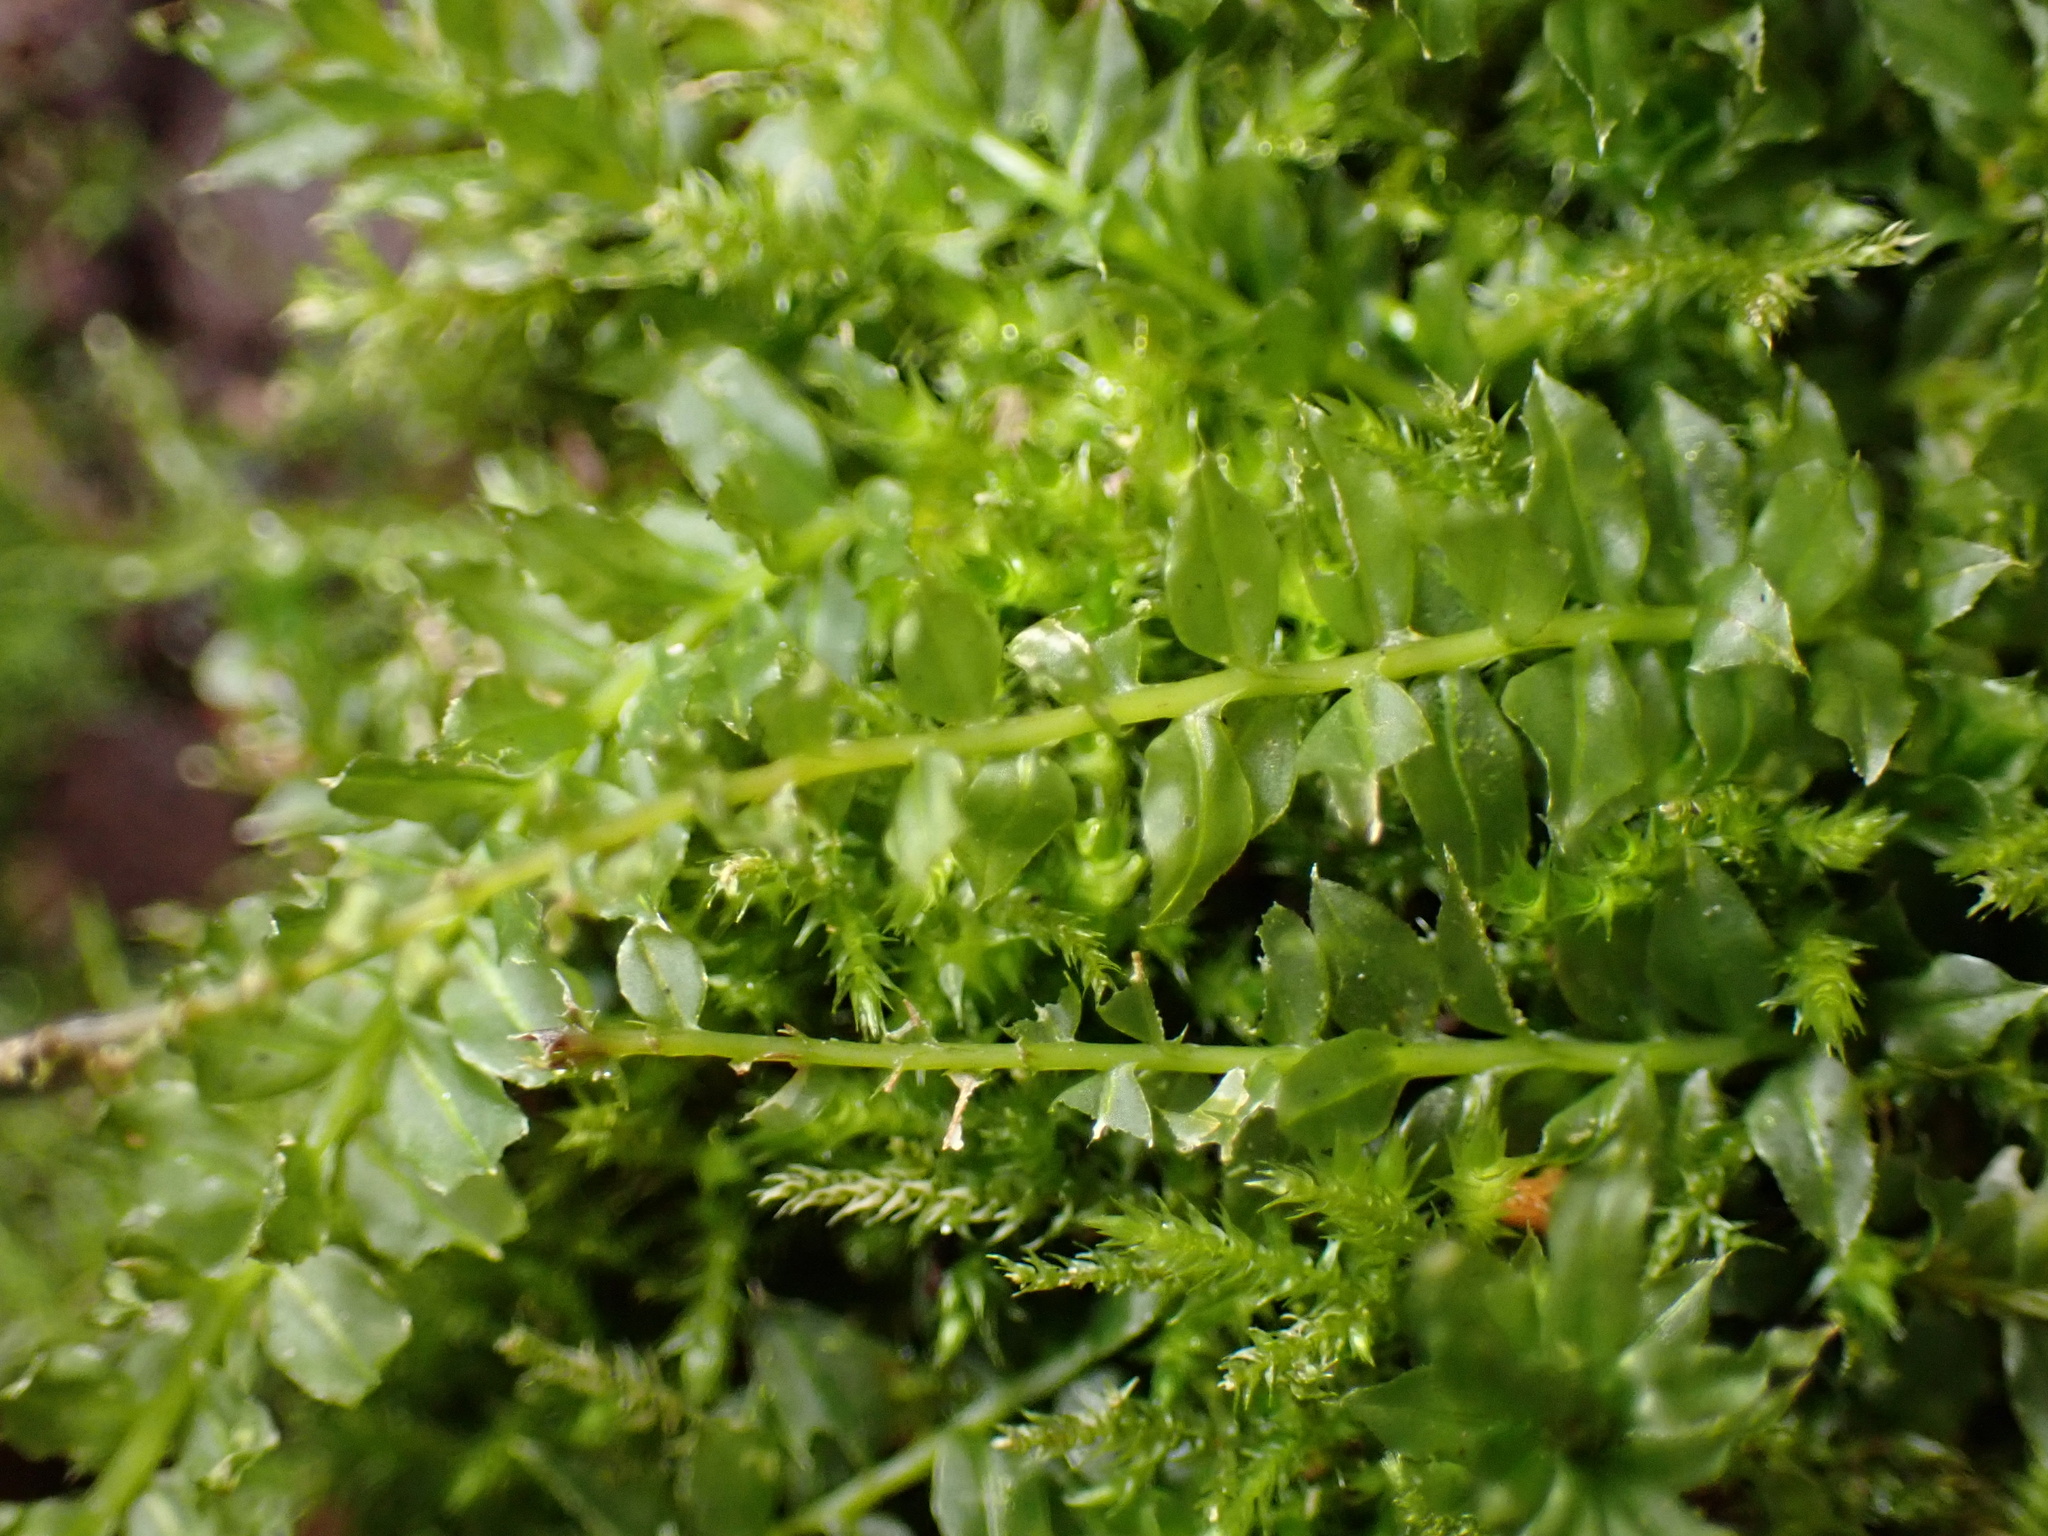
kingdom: Plantae
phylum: Bryophyta
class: Bryopsida
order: Bryales
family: Mniaceae
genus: Plagiomnium
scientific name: Plagiomnium cuspidatum
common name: Woodsy leafy moss
